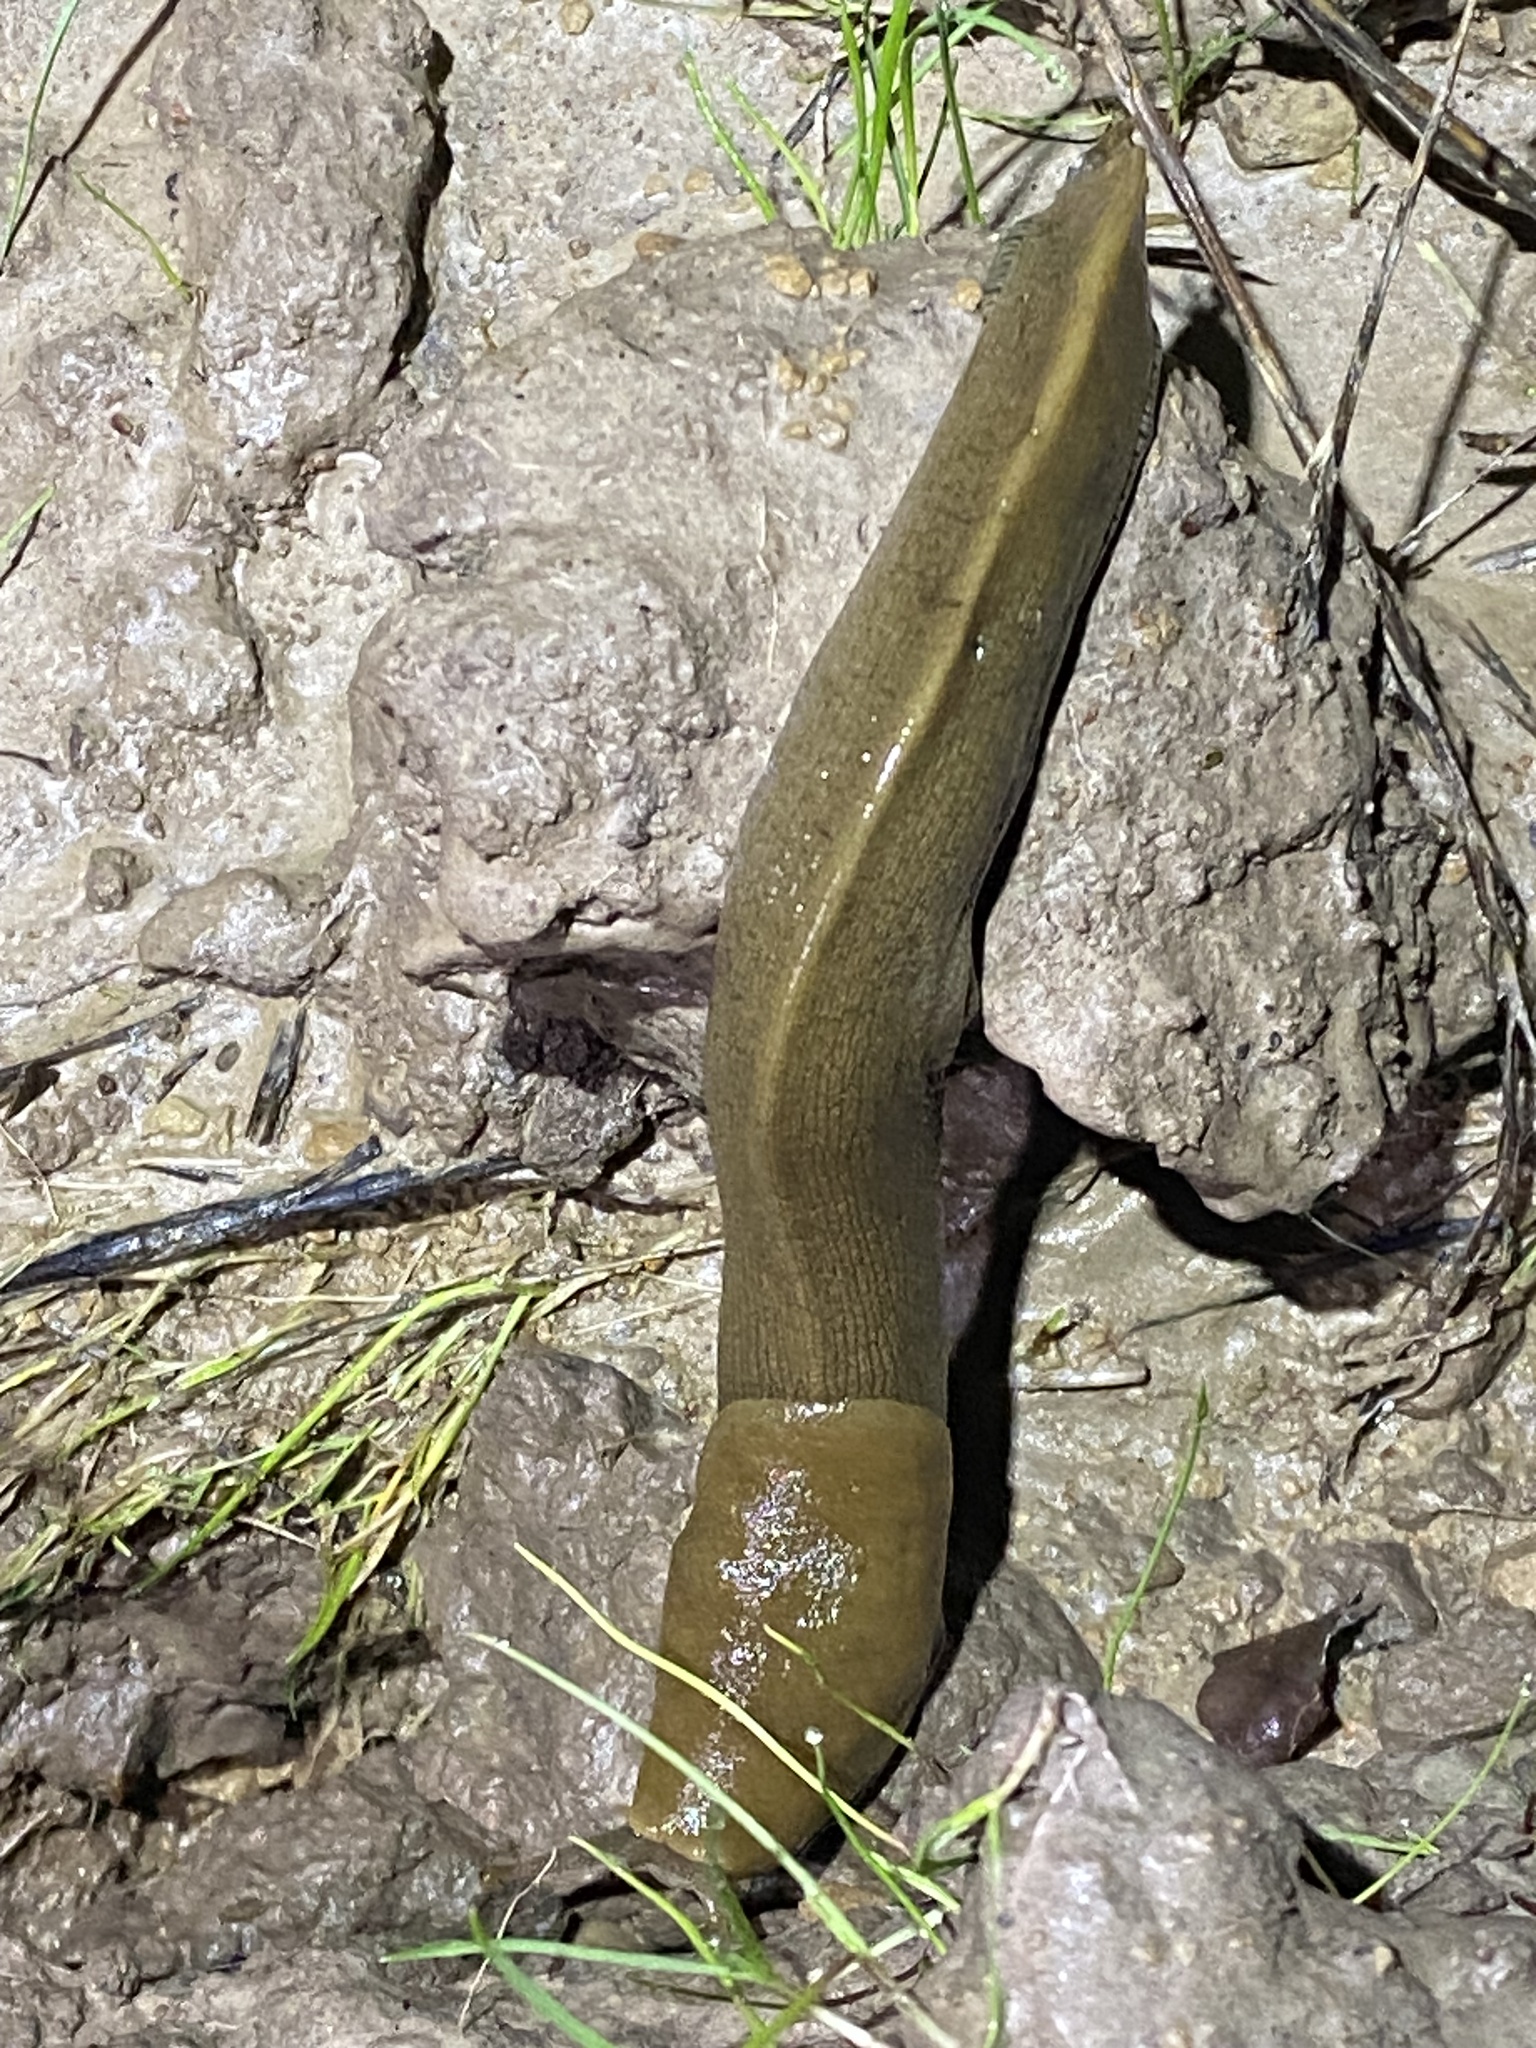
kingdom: Animalia
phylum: Mollusca
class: Gastropoda
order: Stylommatophora
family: Ariolimacidae
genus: Ariolimax
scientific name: Ariolimax buttoni
